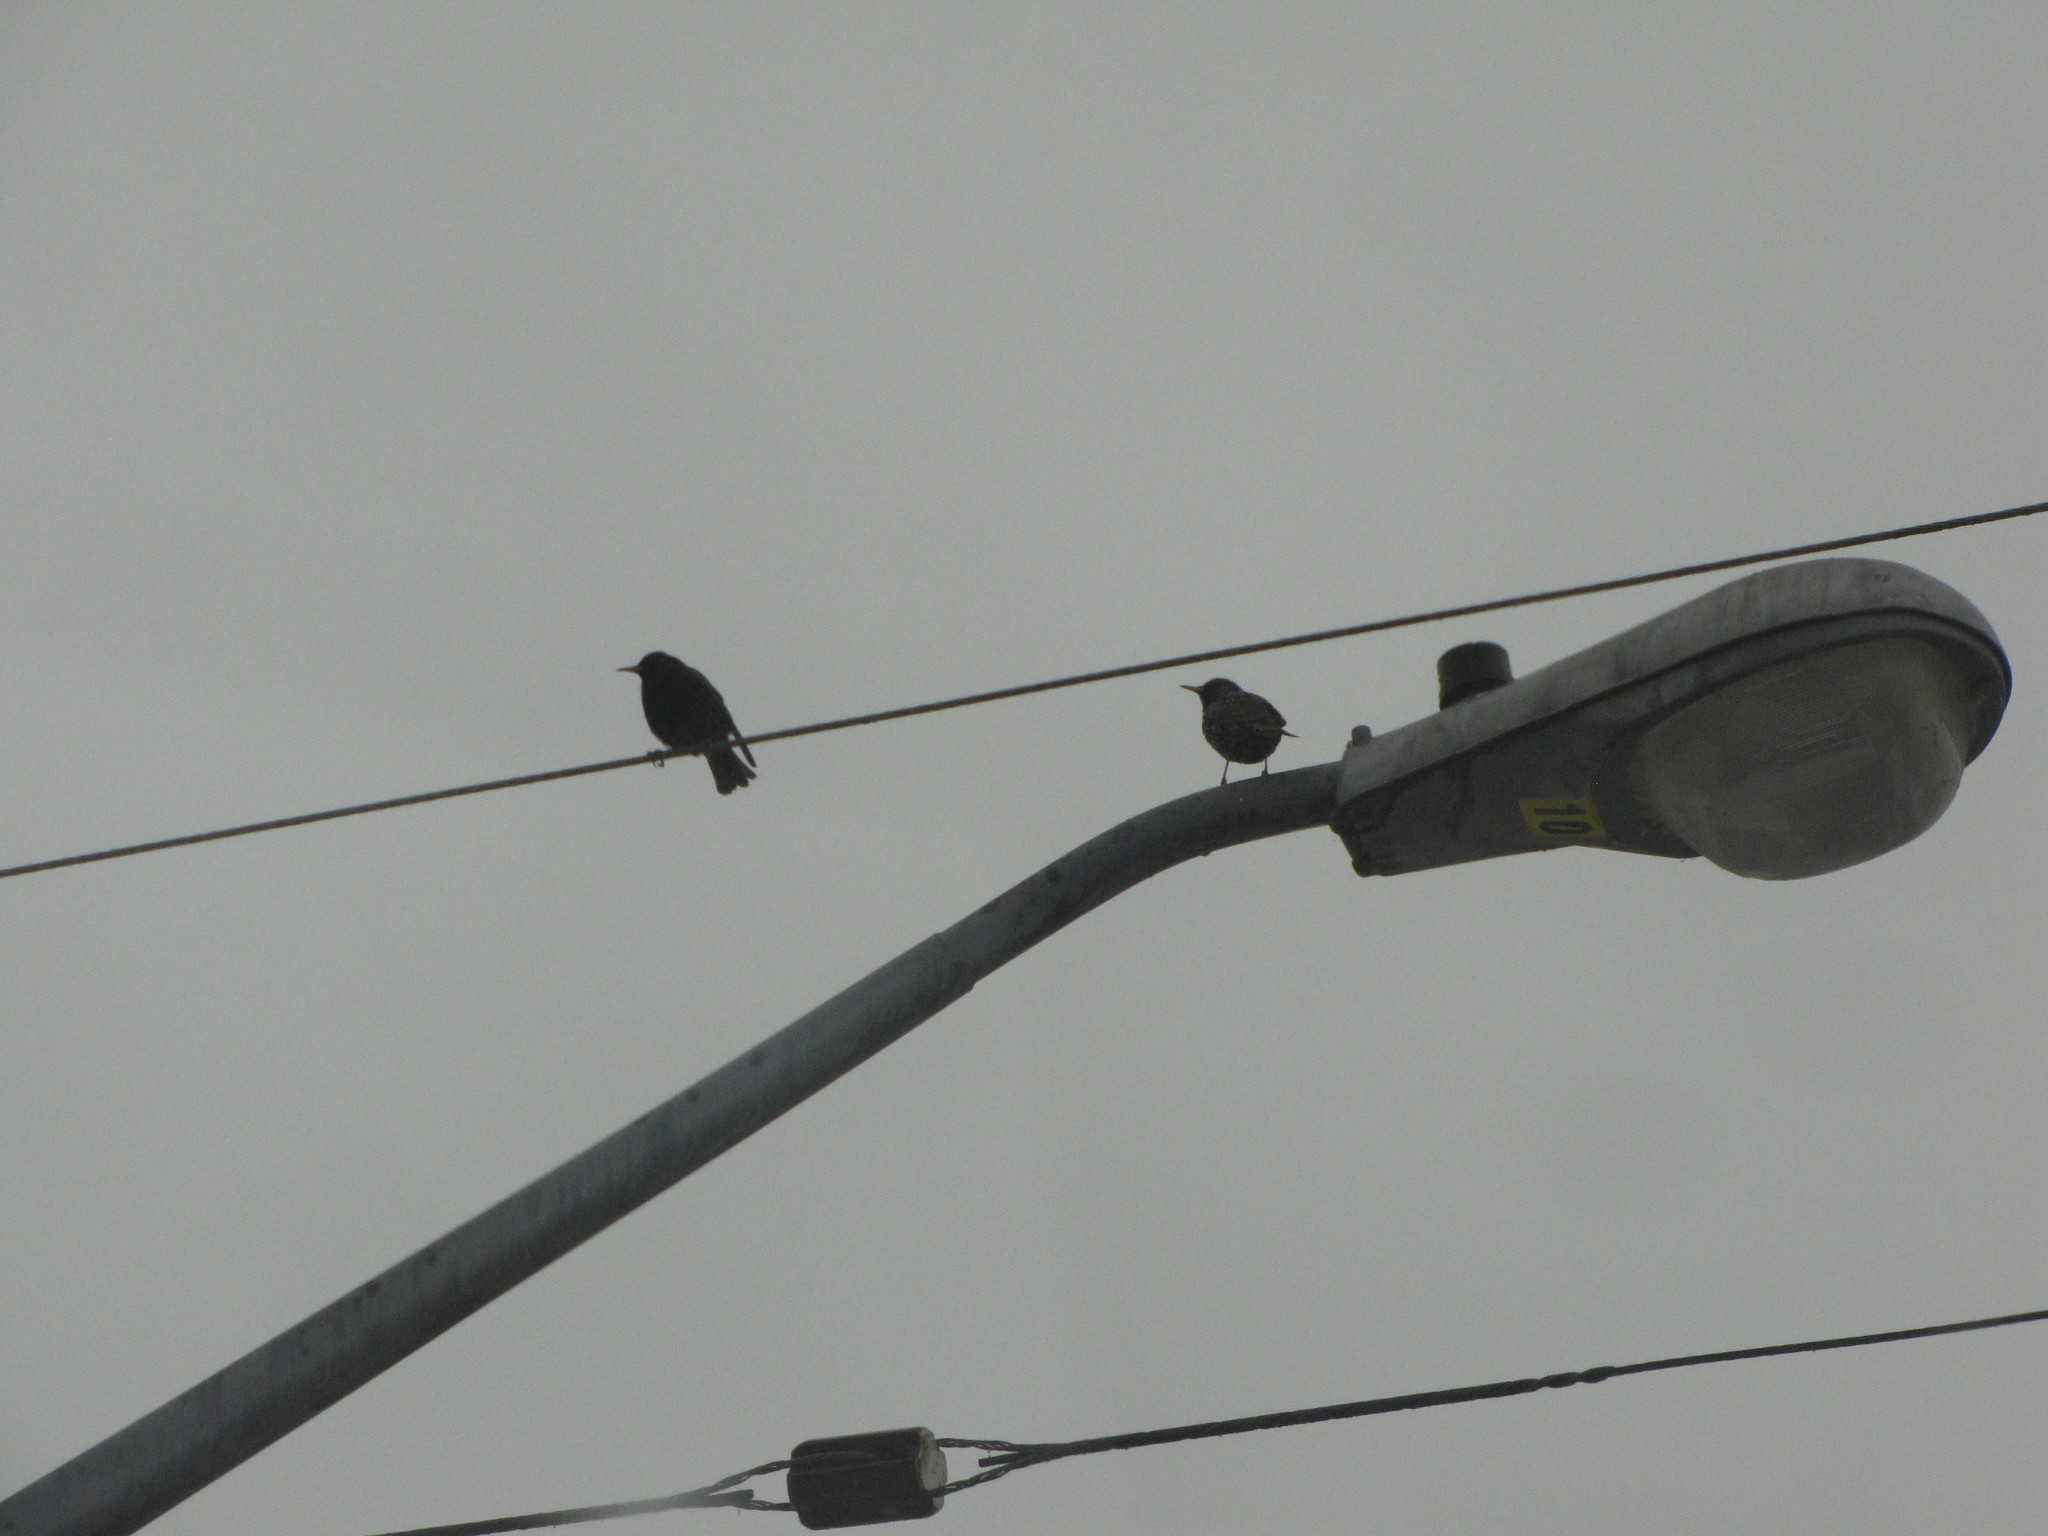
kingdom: Animalia
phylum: Chordata
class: Aves
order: Passeriformes
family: Sturnidae
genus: Sturnus
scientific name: Sturnus vulgaris
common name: Common starling
